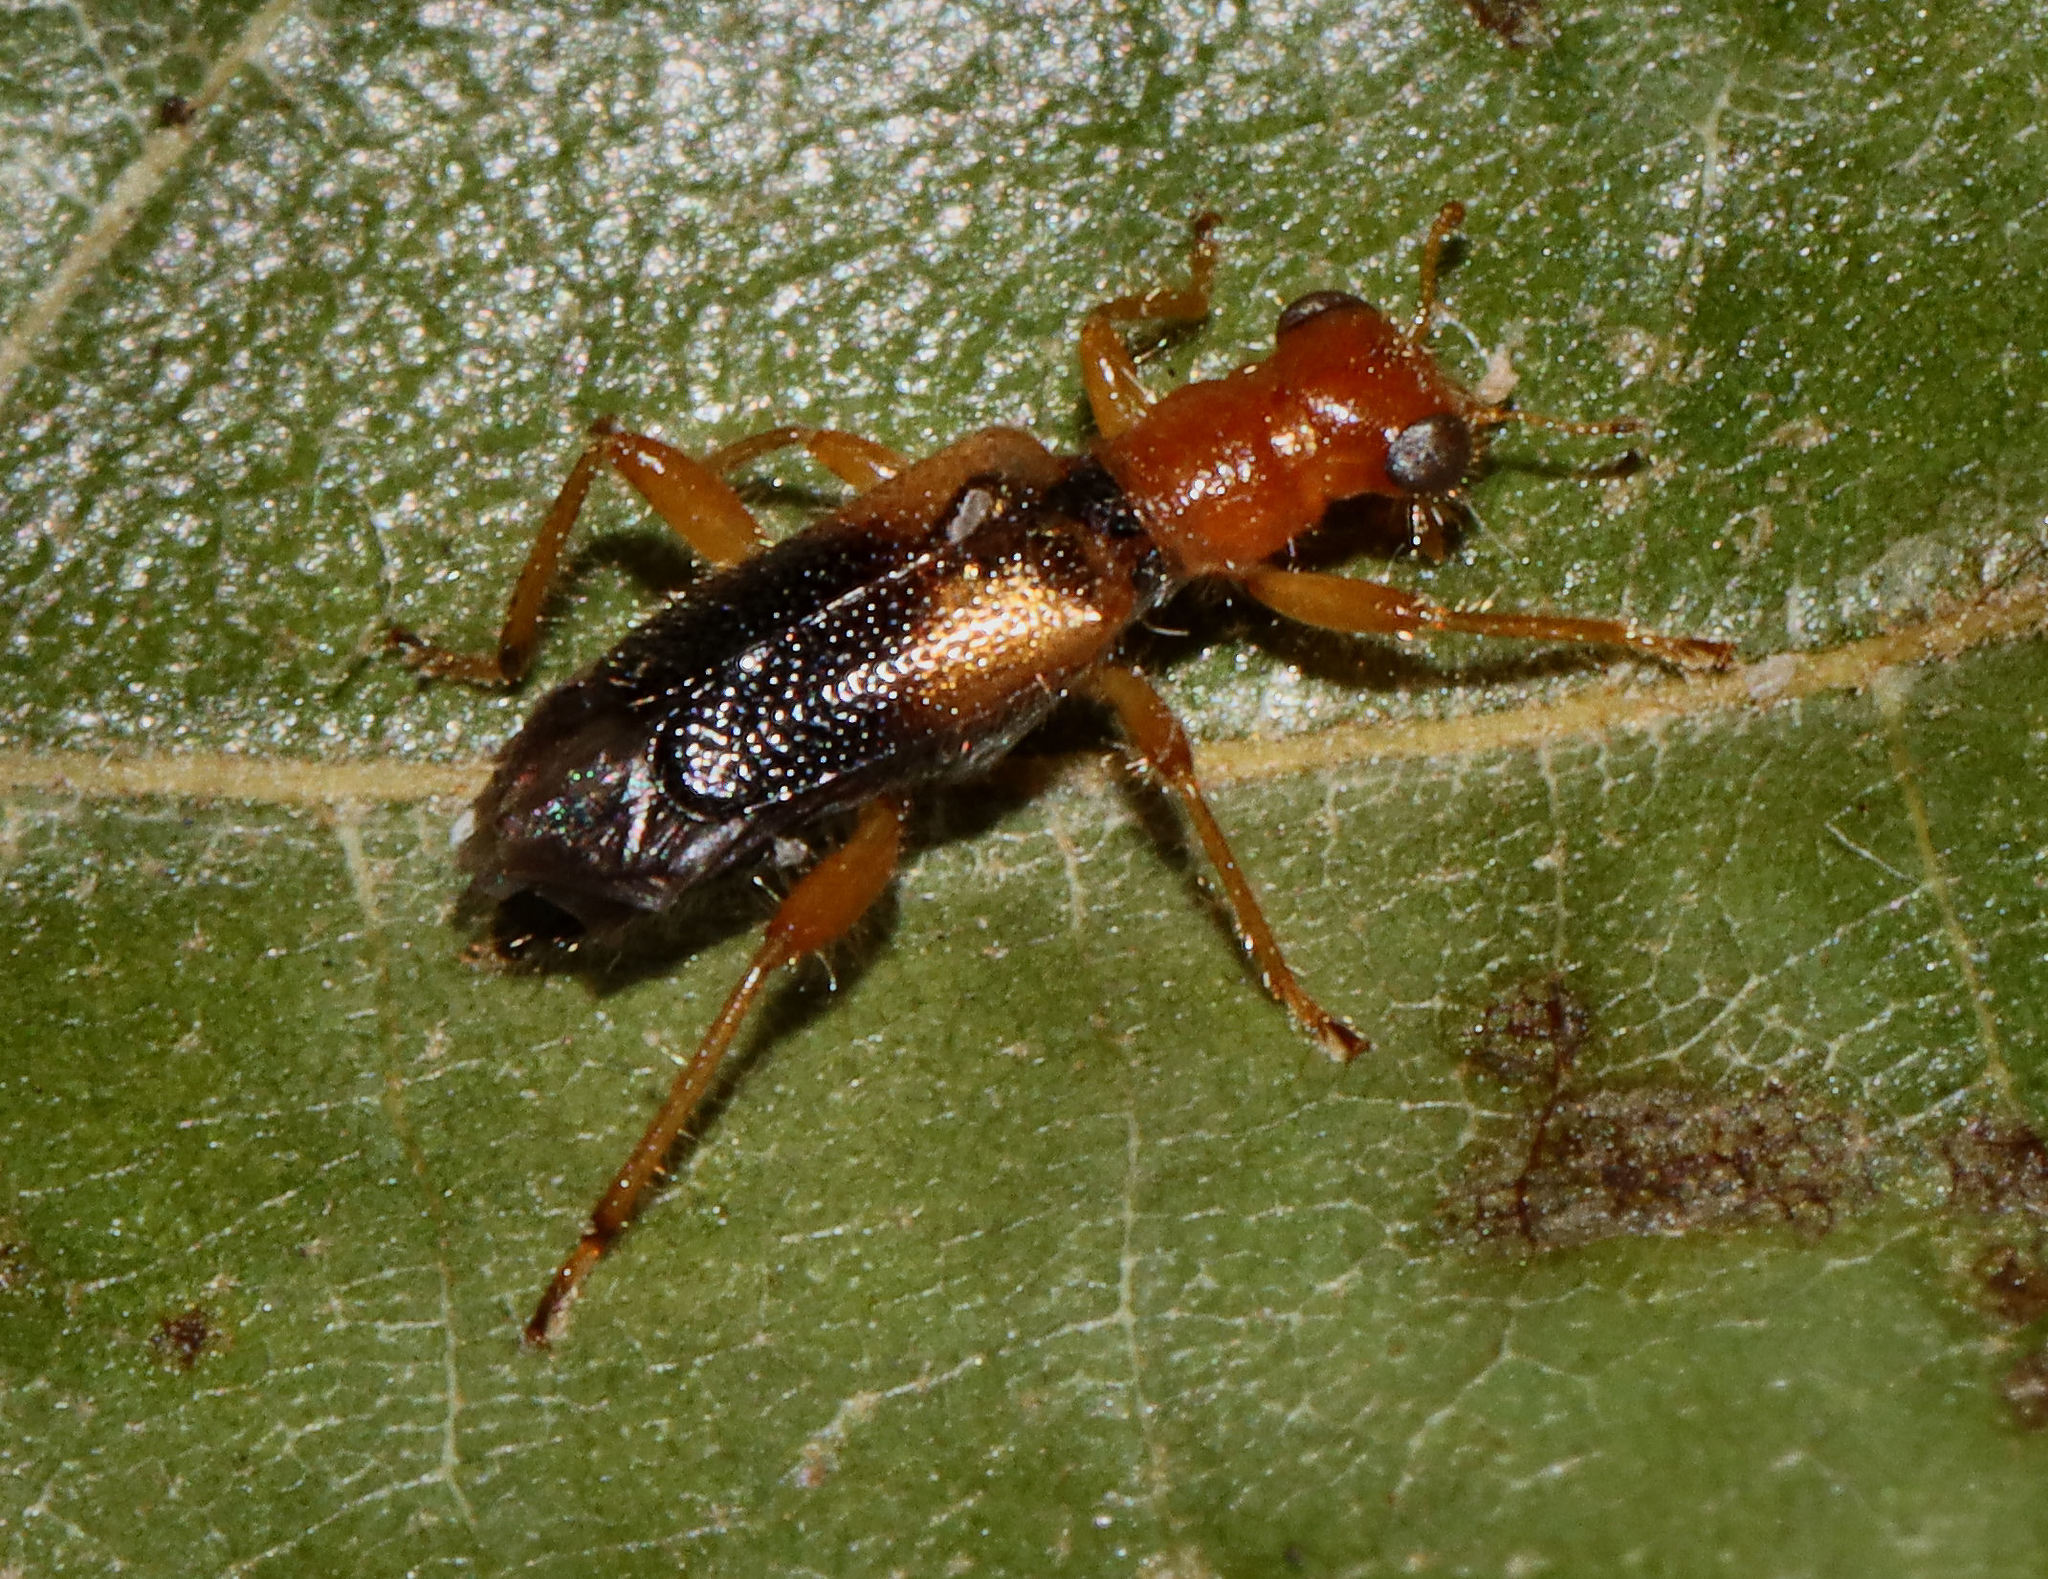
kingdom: Animalia
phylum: Arthropoda
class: Insecta
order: Coleoptera
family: Cleridae
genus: Phyllobaenus
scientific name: Phyllobaenus verticalis
